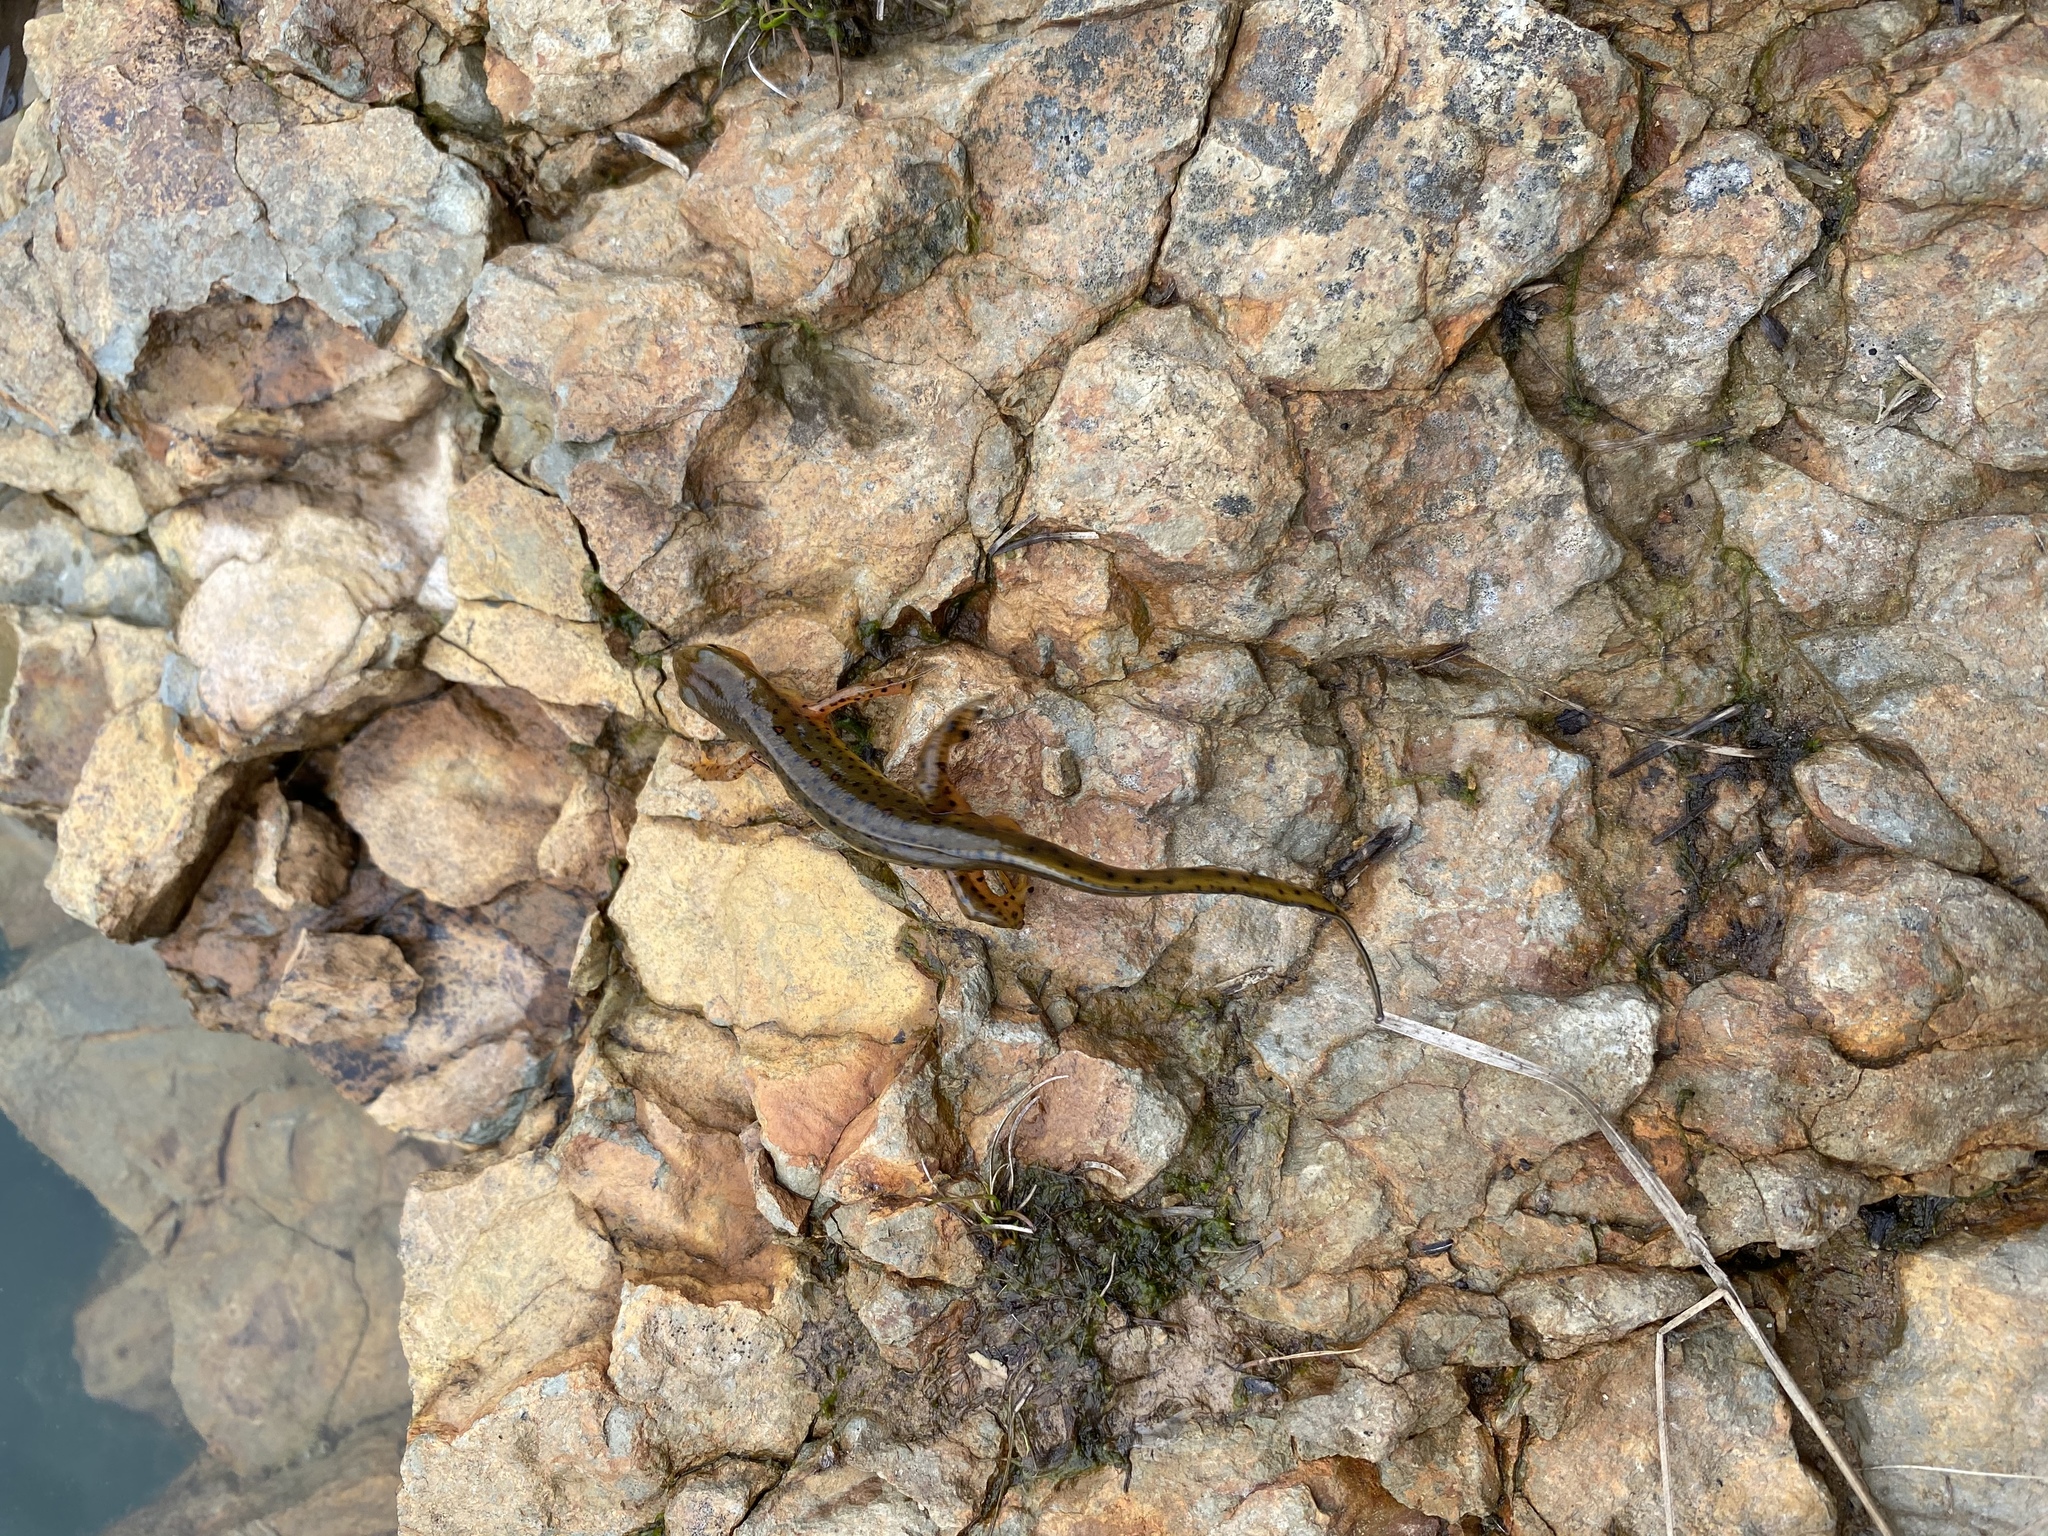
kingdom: Animalia
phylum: Chordata
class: Amphibia
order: Caudata
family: Salamandridae
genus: Notophthalmus
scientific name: Notophthalmus viridescens
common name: Eastern newt
